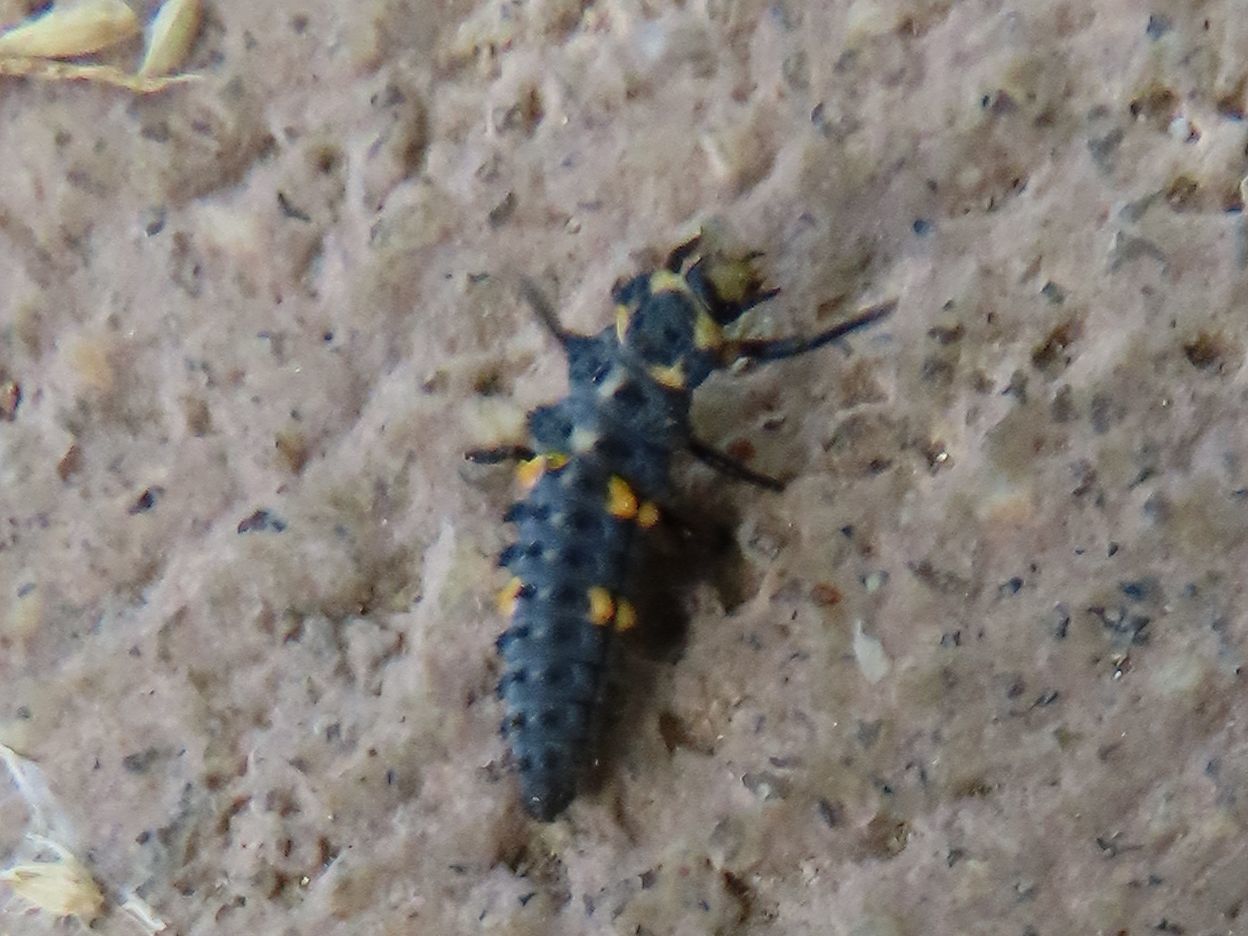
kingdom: Animalia
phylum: Arthropoda
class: Insecta
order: Coleoptera
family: Coccinellidae
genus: Coccinella
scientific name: Coccinella septempunctata
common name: Sevenspotted lady beetle
